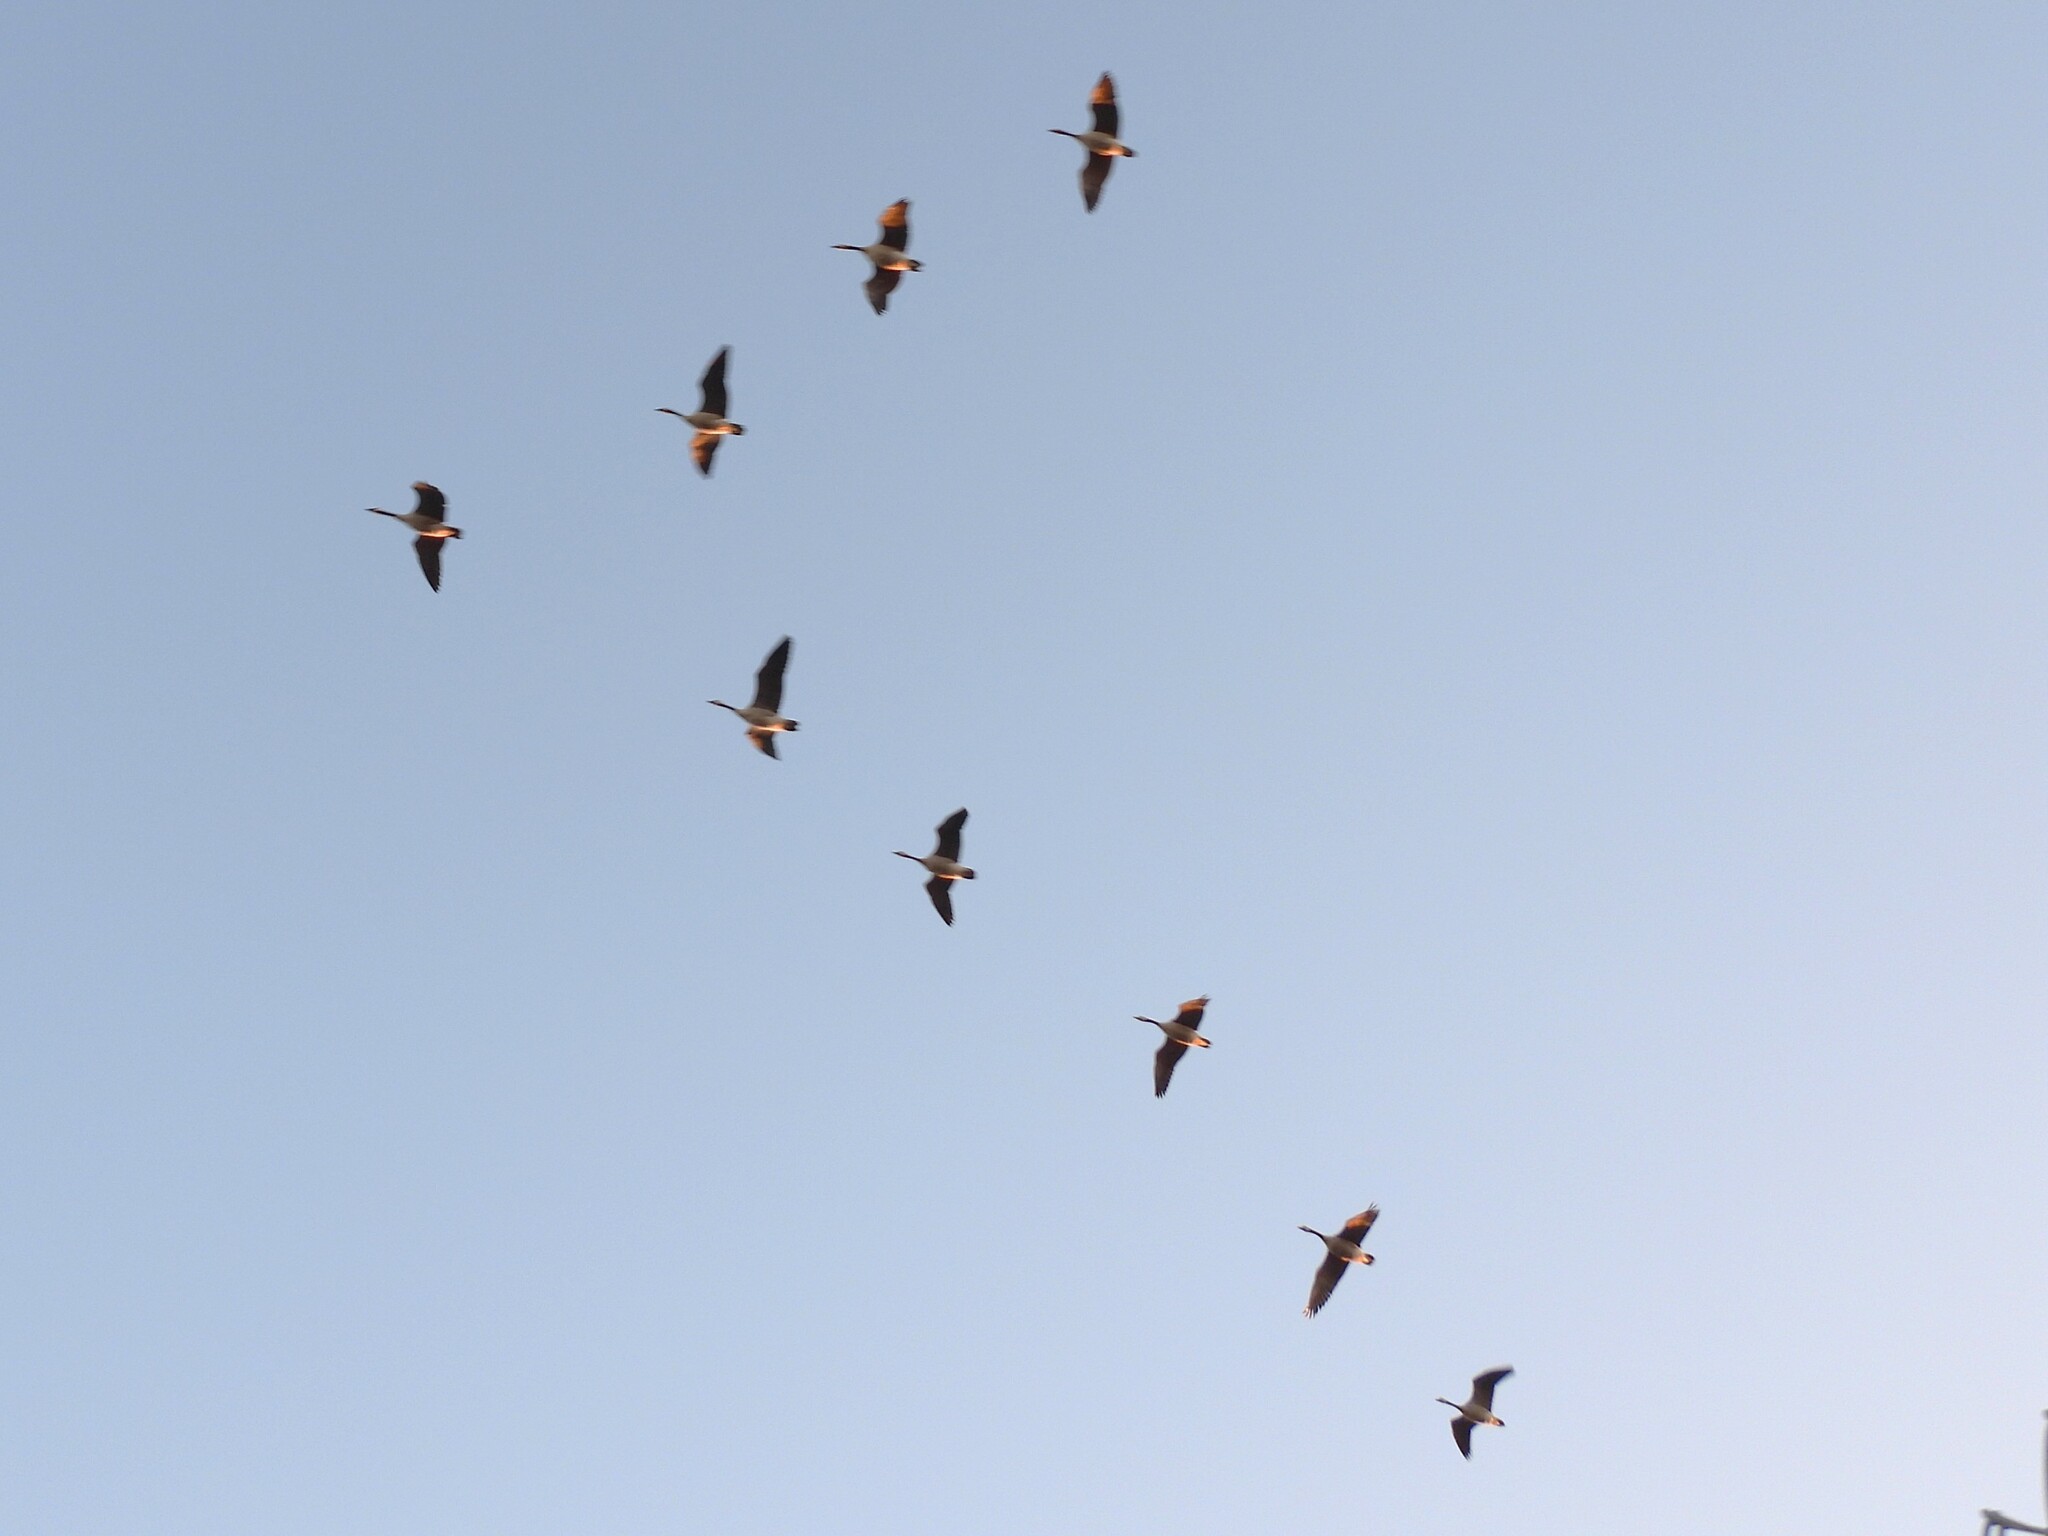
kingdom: Animalia
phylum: Chordata
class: Aves
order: Anseriformes
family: Anatidae
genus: Branta
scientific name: Branta canadensis
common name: Canada goose
